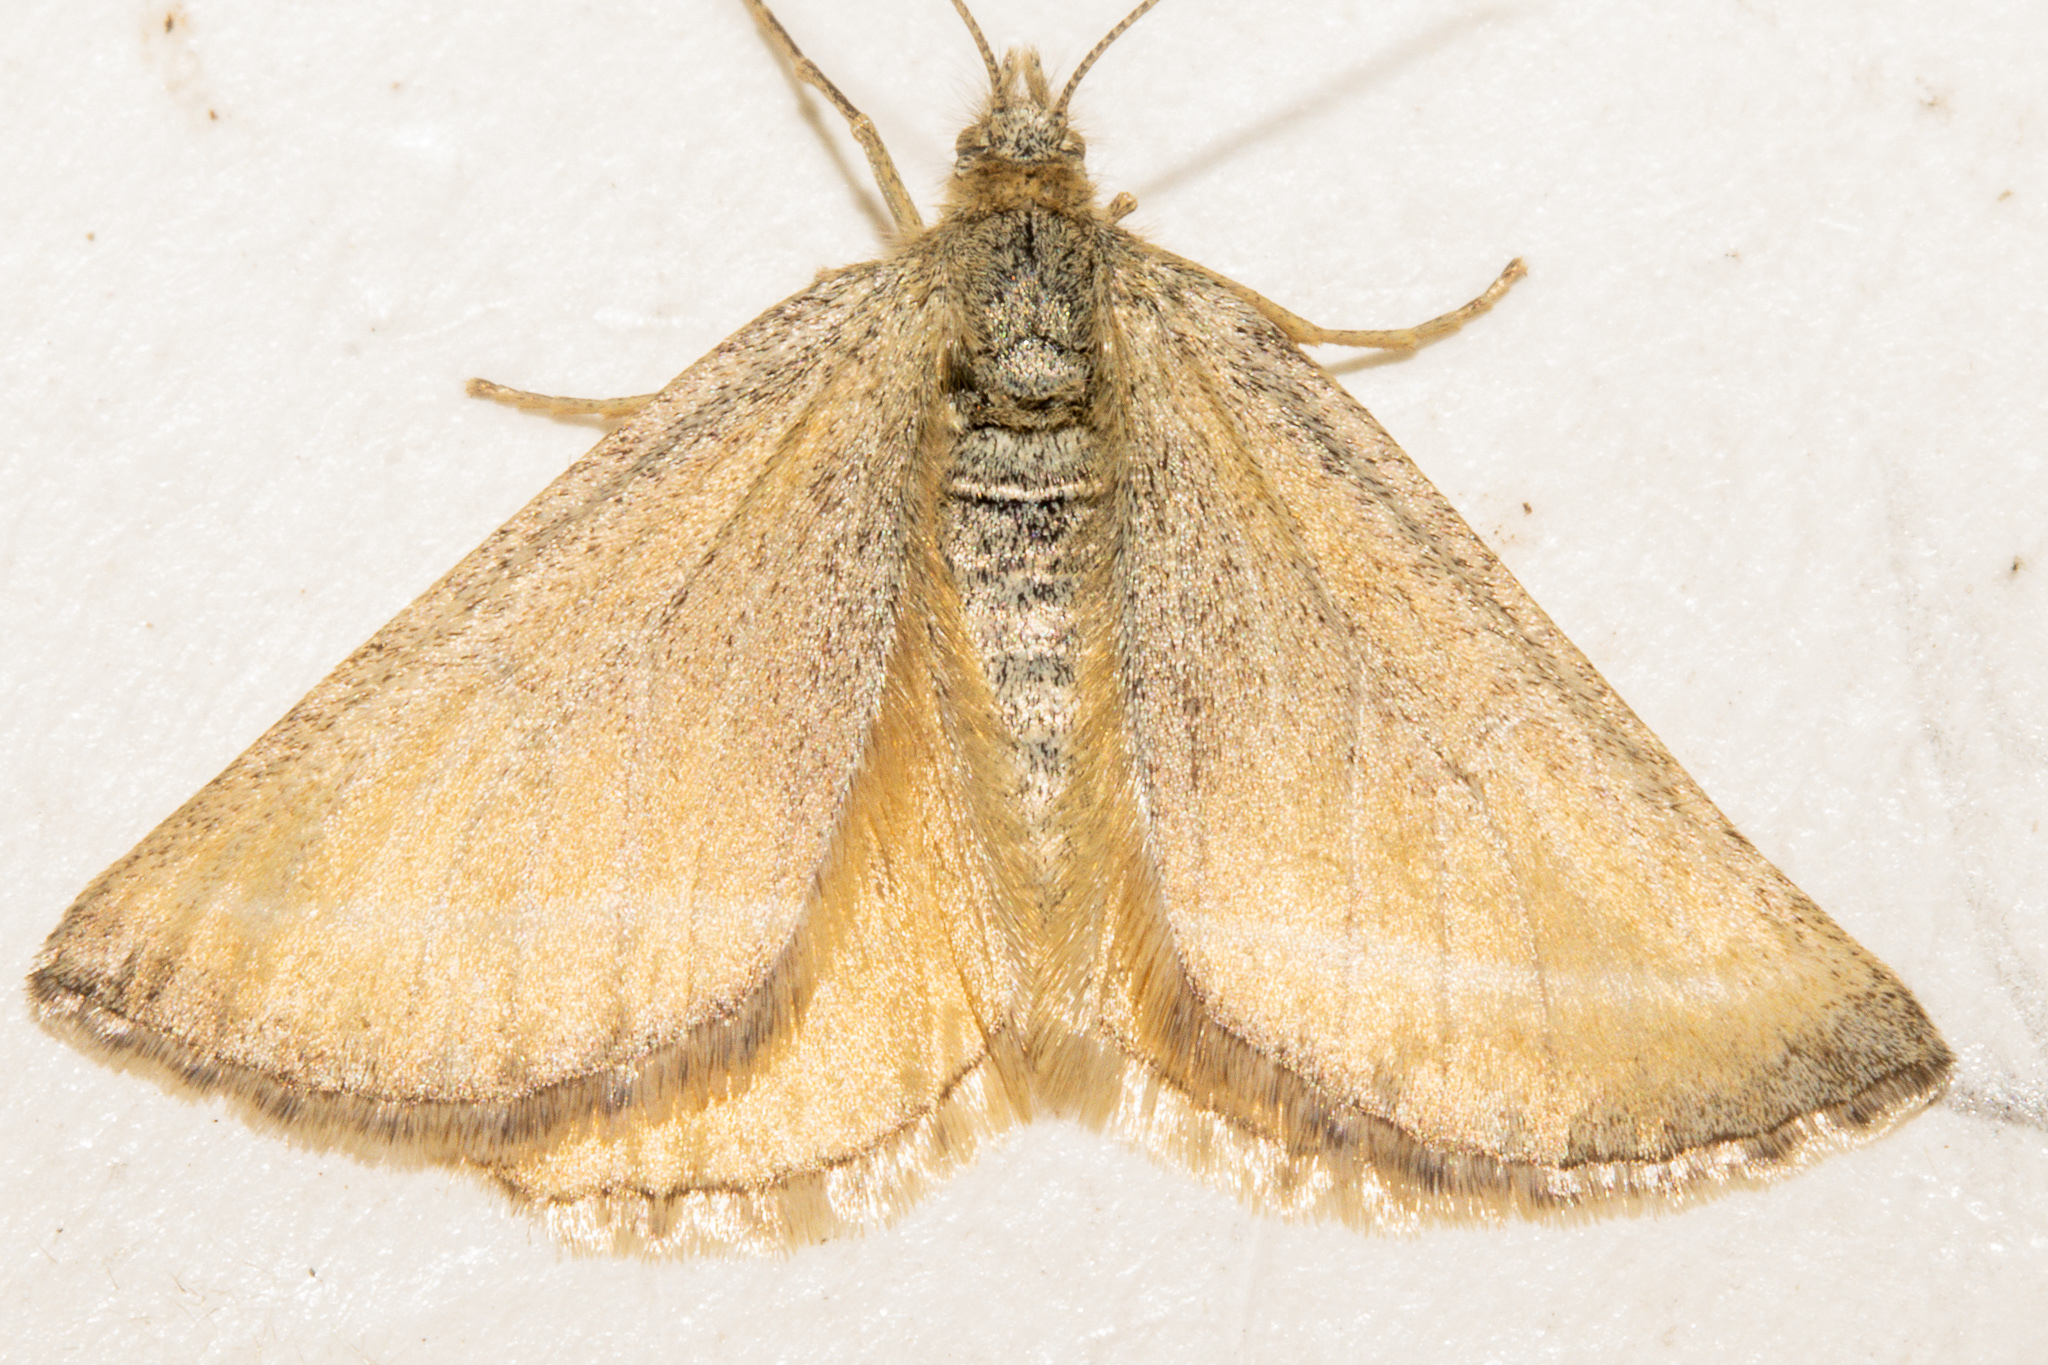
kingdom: Animalia
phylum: Arthropoda
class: Insecta
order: Lepidoptera
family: Geometridae
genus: Aponotoreas
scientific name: Aponotoreas insignis
